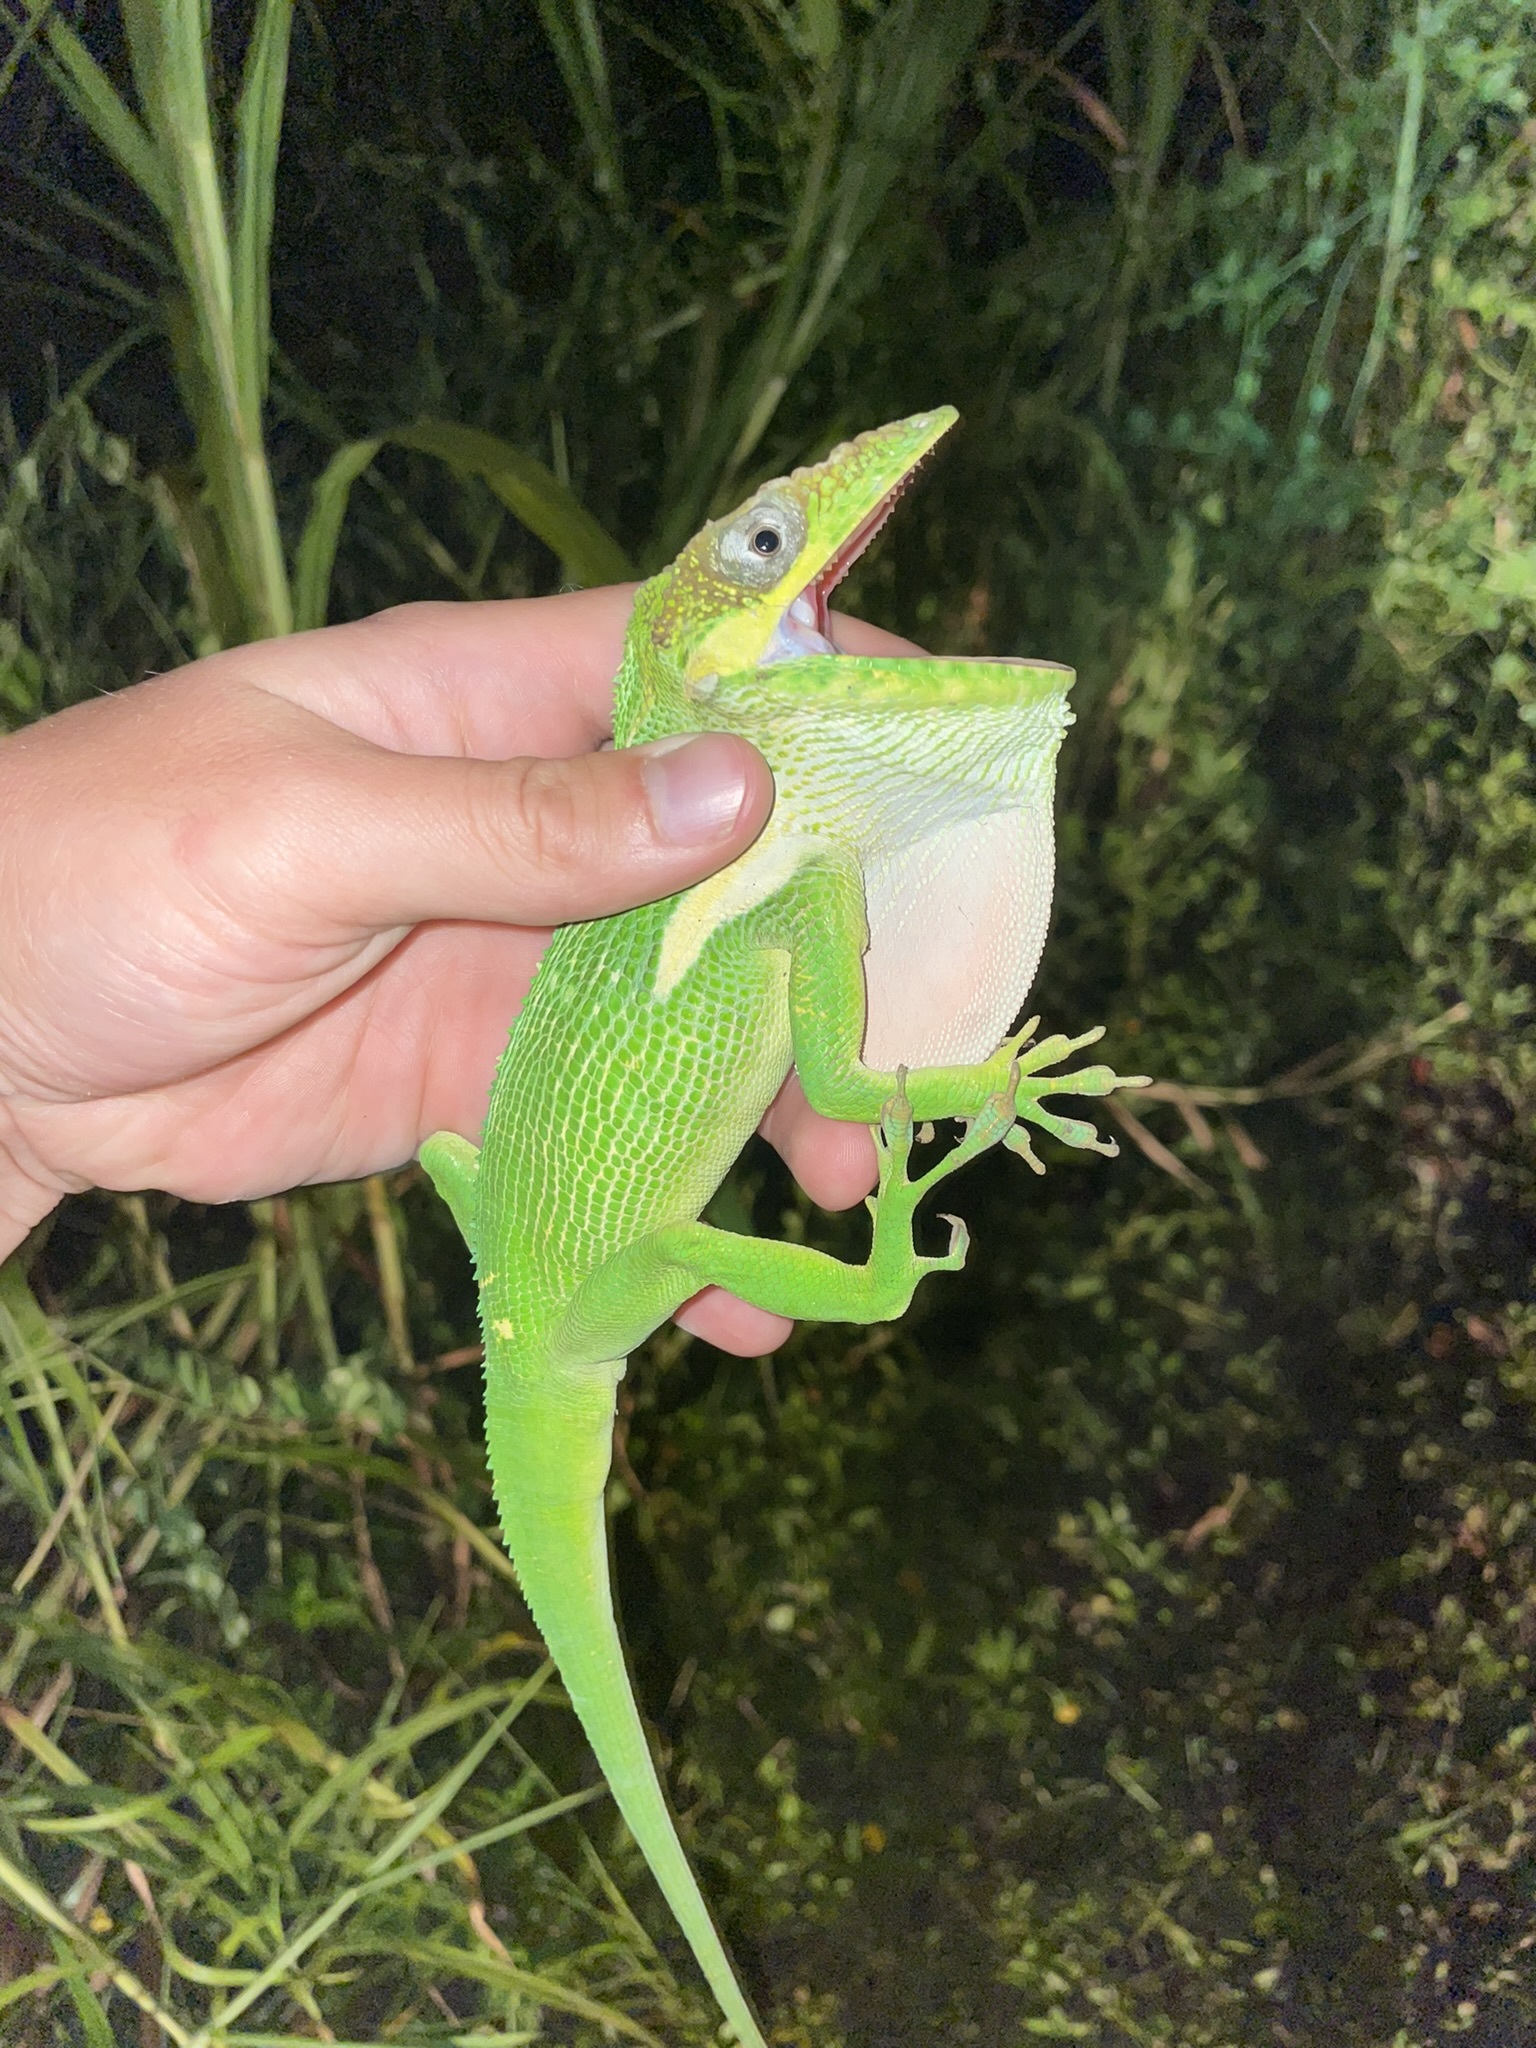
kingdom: Animalia
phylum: Chordata
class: Squamata
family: Dactyloidae
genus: Anolis
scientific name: Anolis equestris
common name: Knight anole
